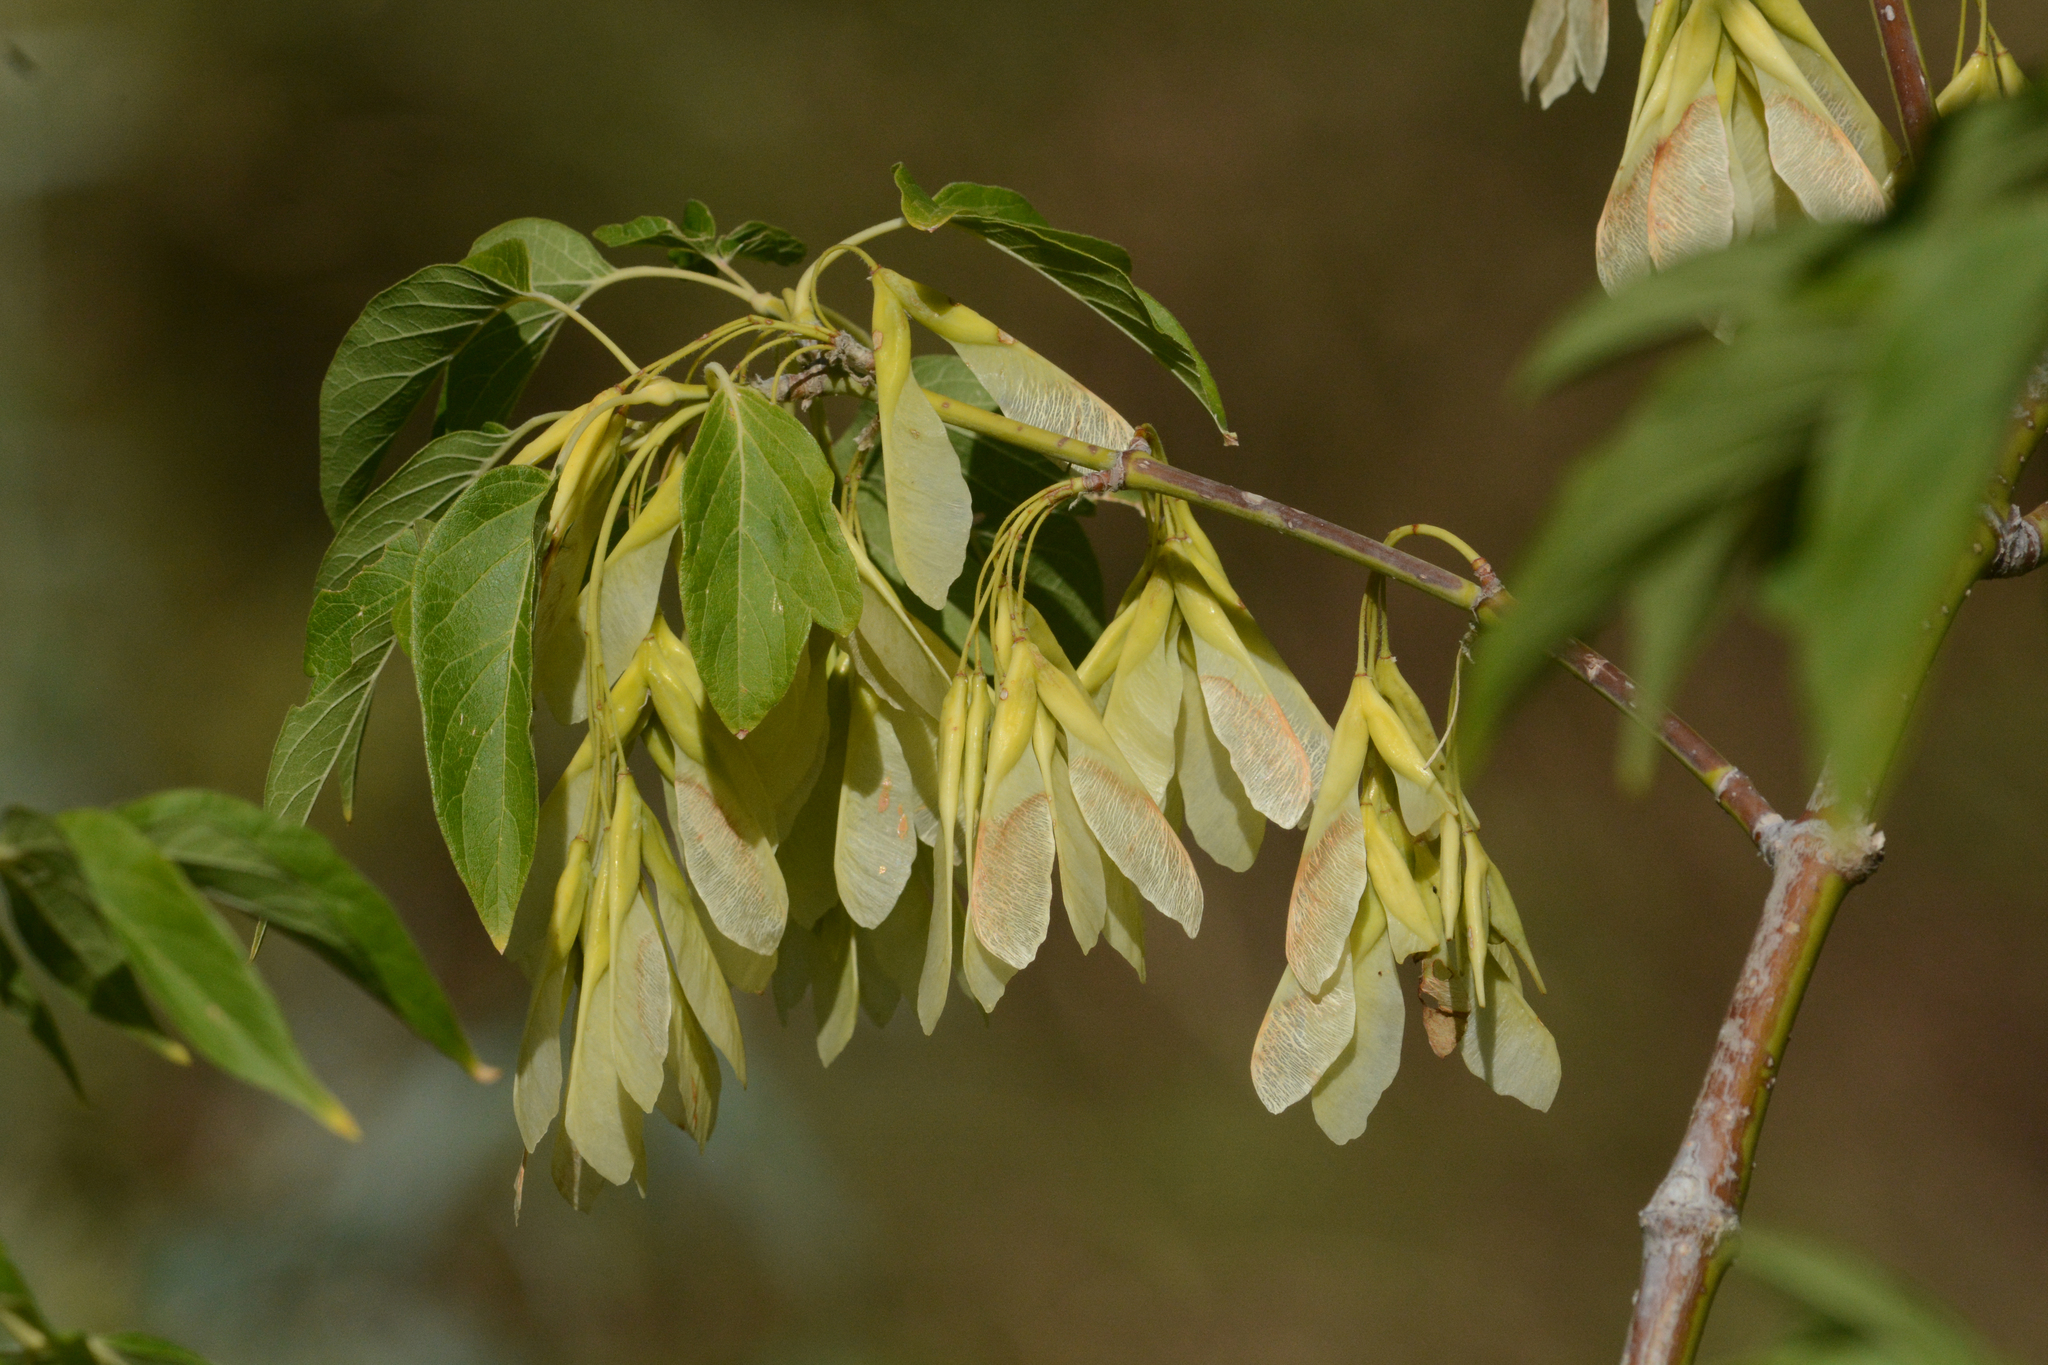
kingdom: Plantae
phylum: Tracheophyta
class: Magnoliopsida
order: Sapindales
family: Sapindaceae
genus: Acer
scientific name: Acer negundo
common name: Ashleaf maple
